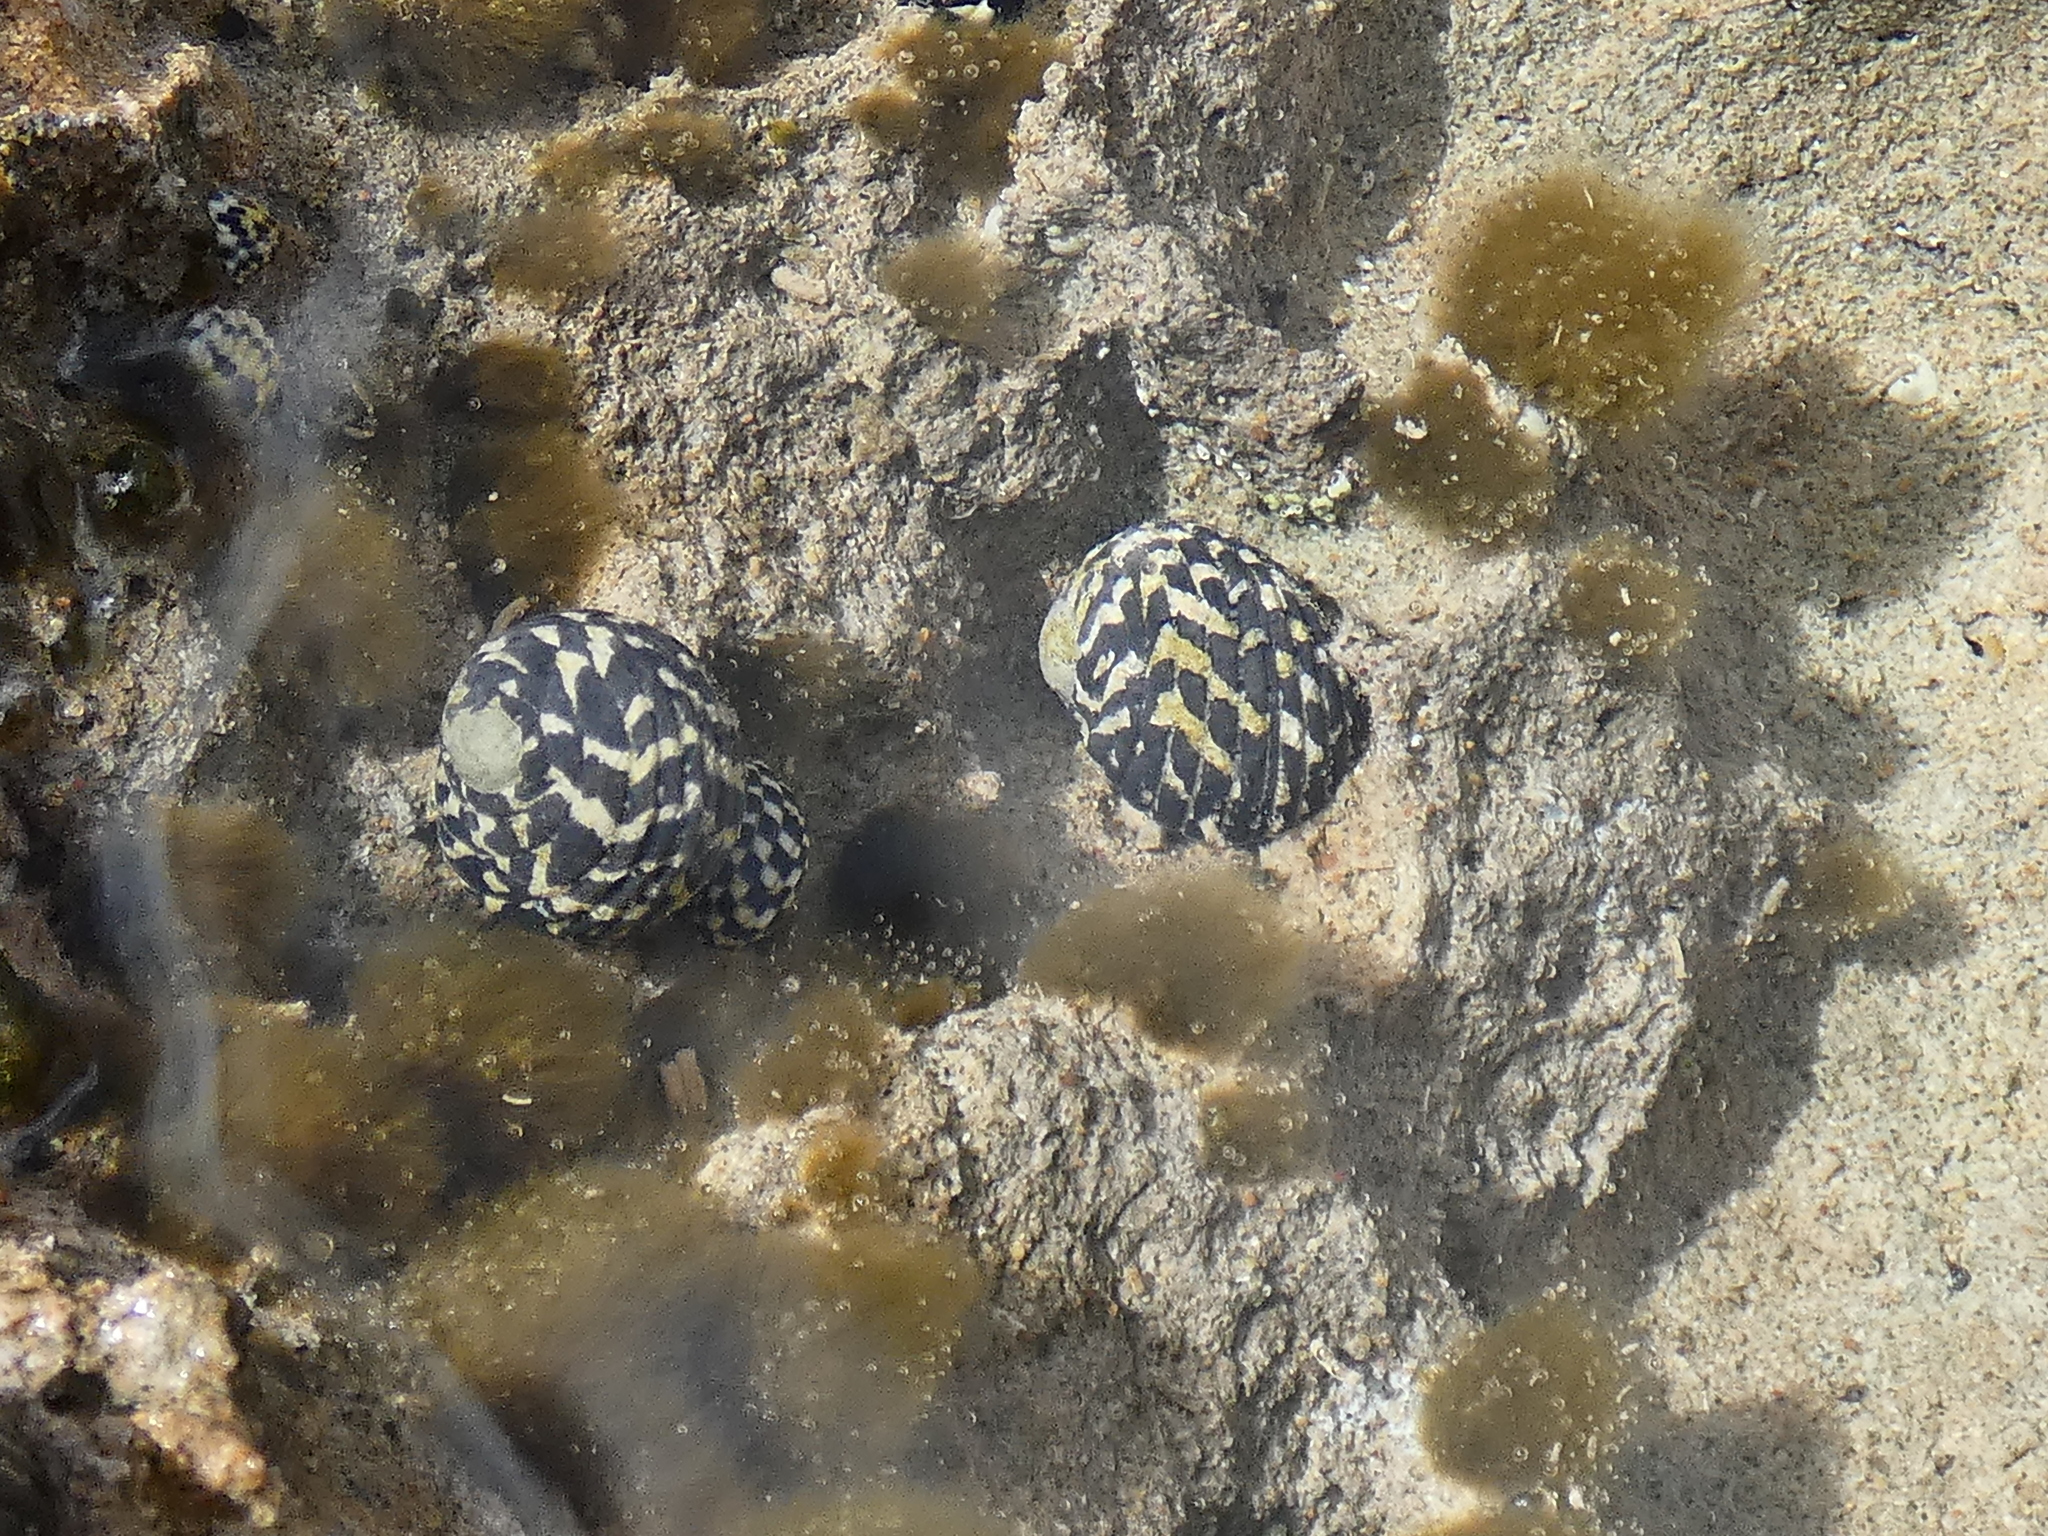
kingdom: Animalia
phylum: Mollusca
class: Gastropoda
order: Cycloneritida
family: Neritidae
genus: Nerita
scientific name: Nerita tessellata
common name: Checkered nerite
